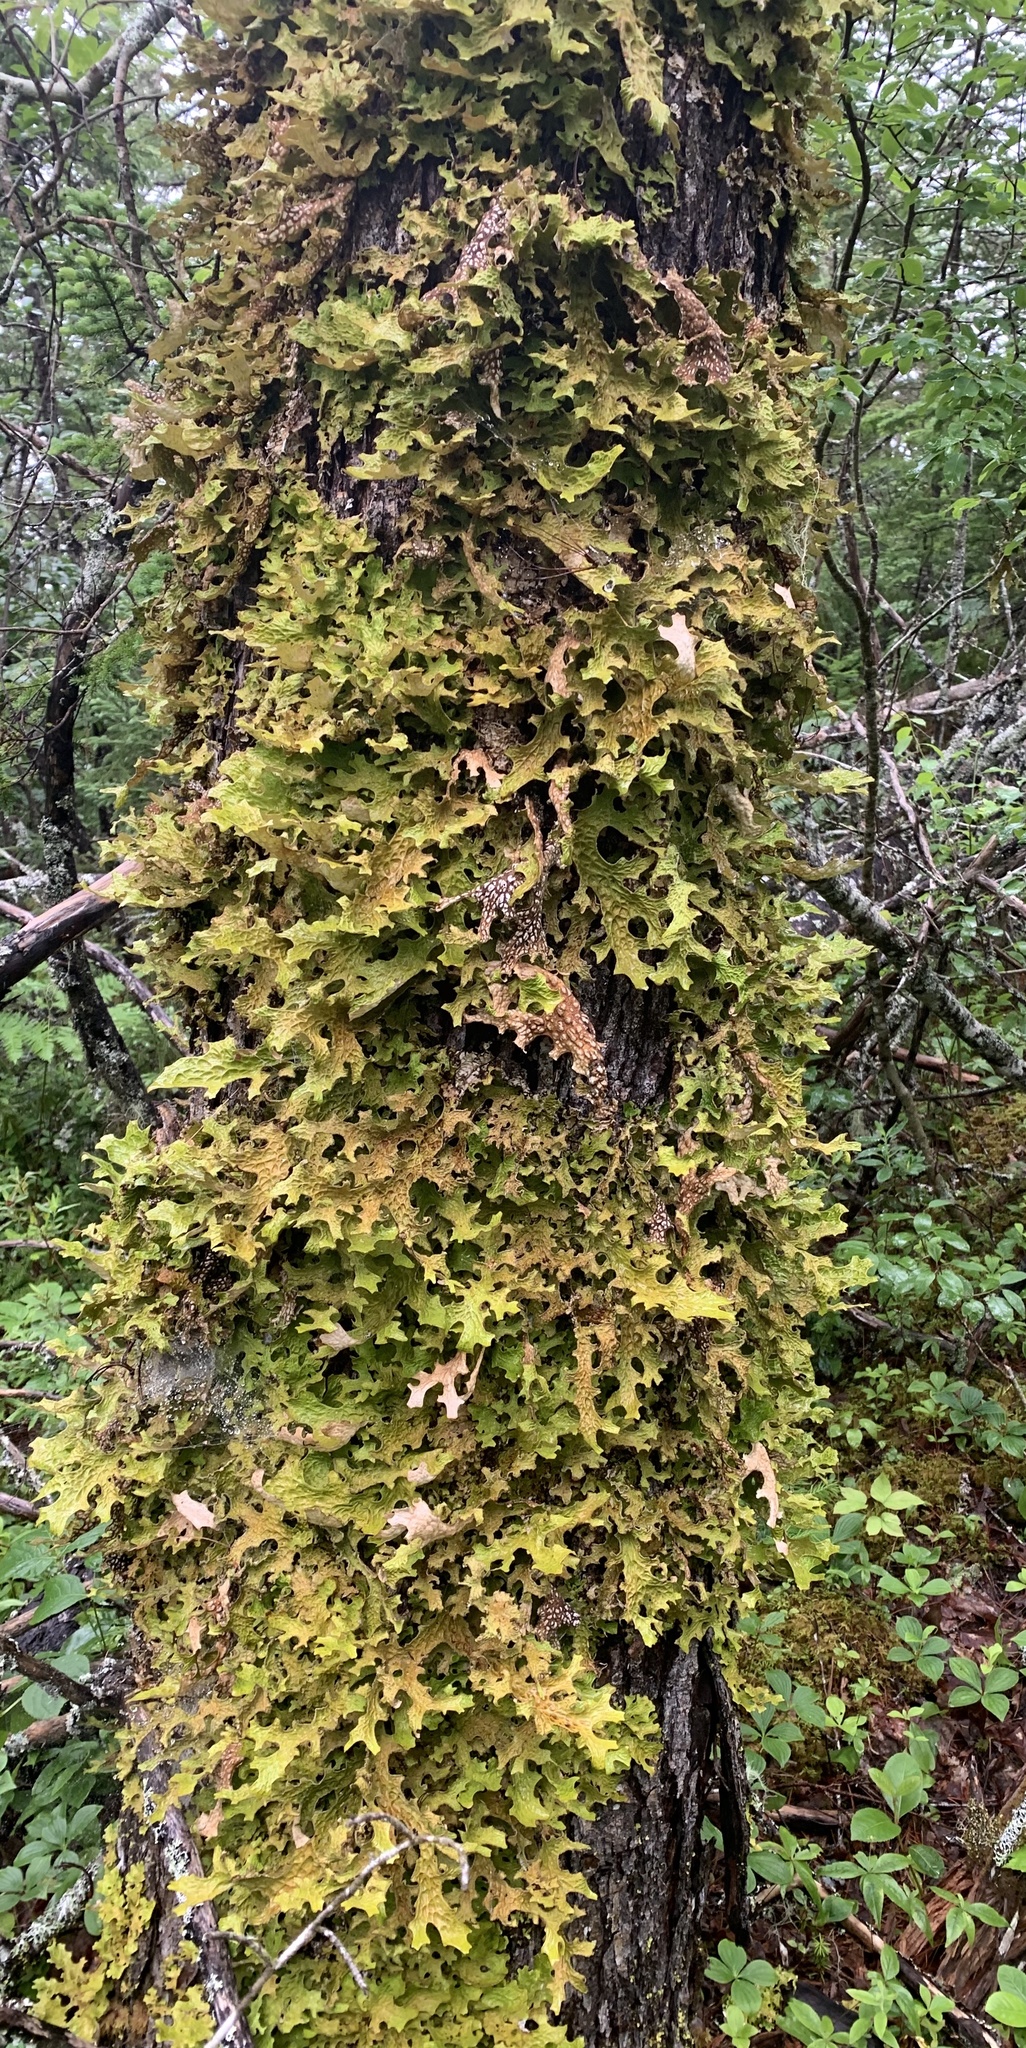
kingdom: Fungi
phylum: Ascomycota
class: Lecanoromycetes
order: Peltigerales
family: Lobariaceae
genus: Lobaria
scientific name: Lobaria pulmonaria
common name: Lungwort
